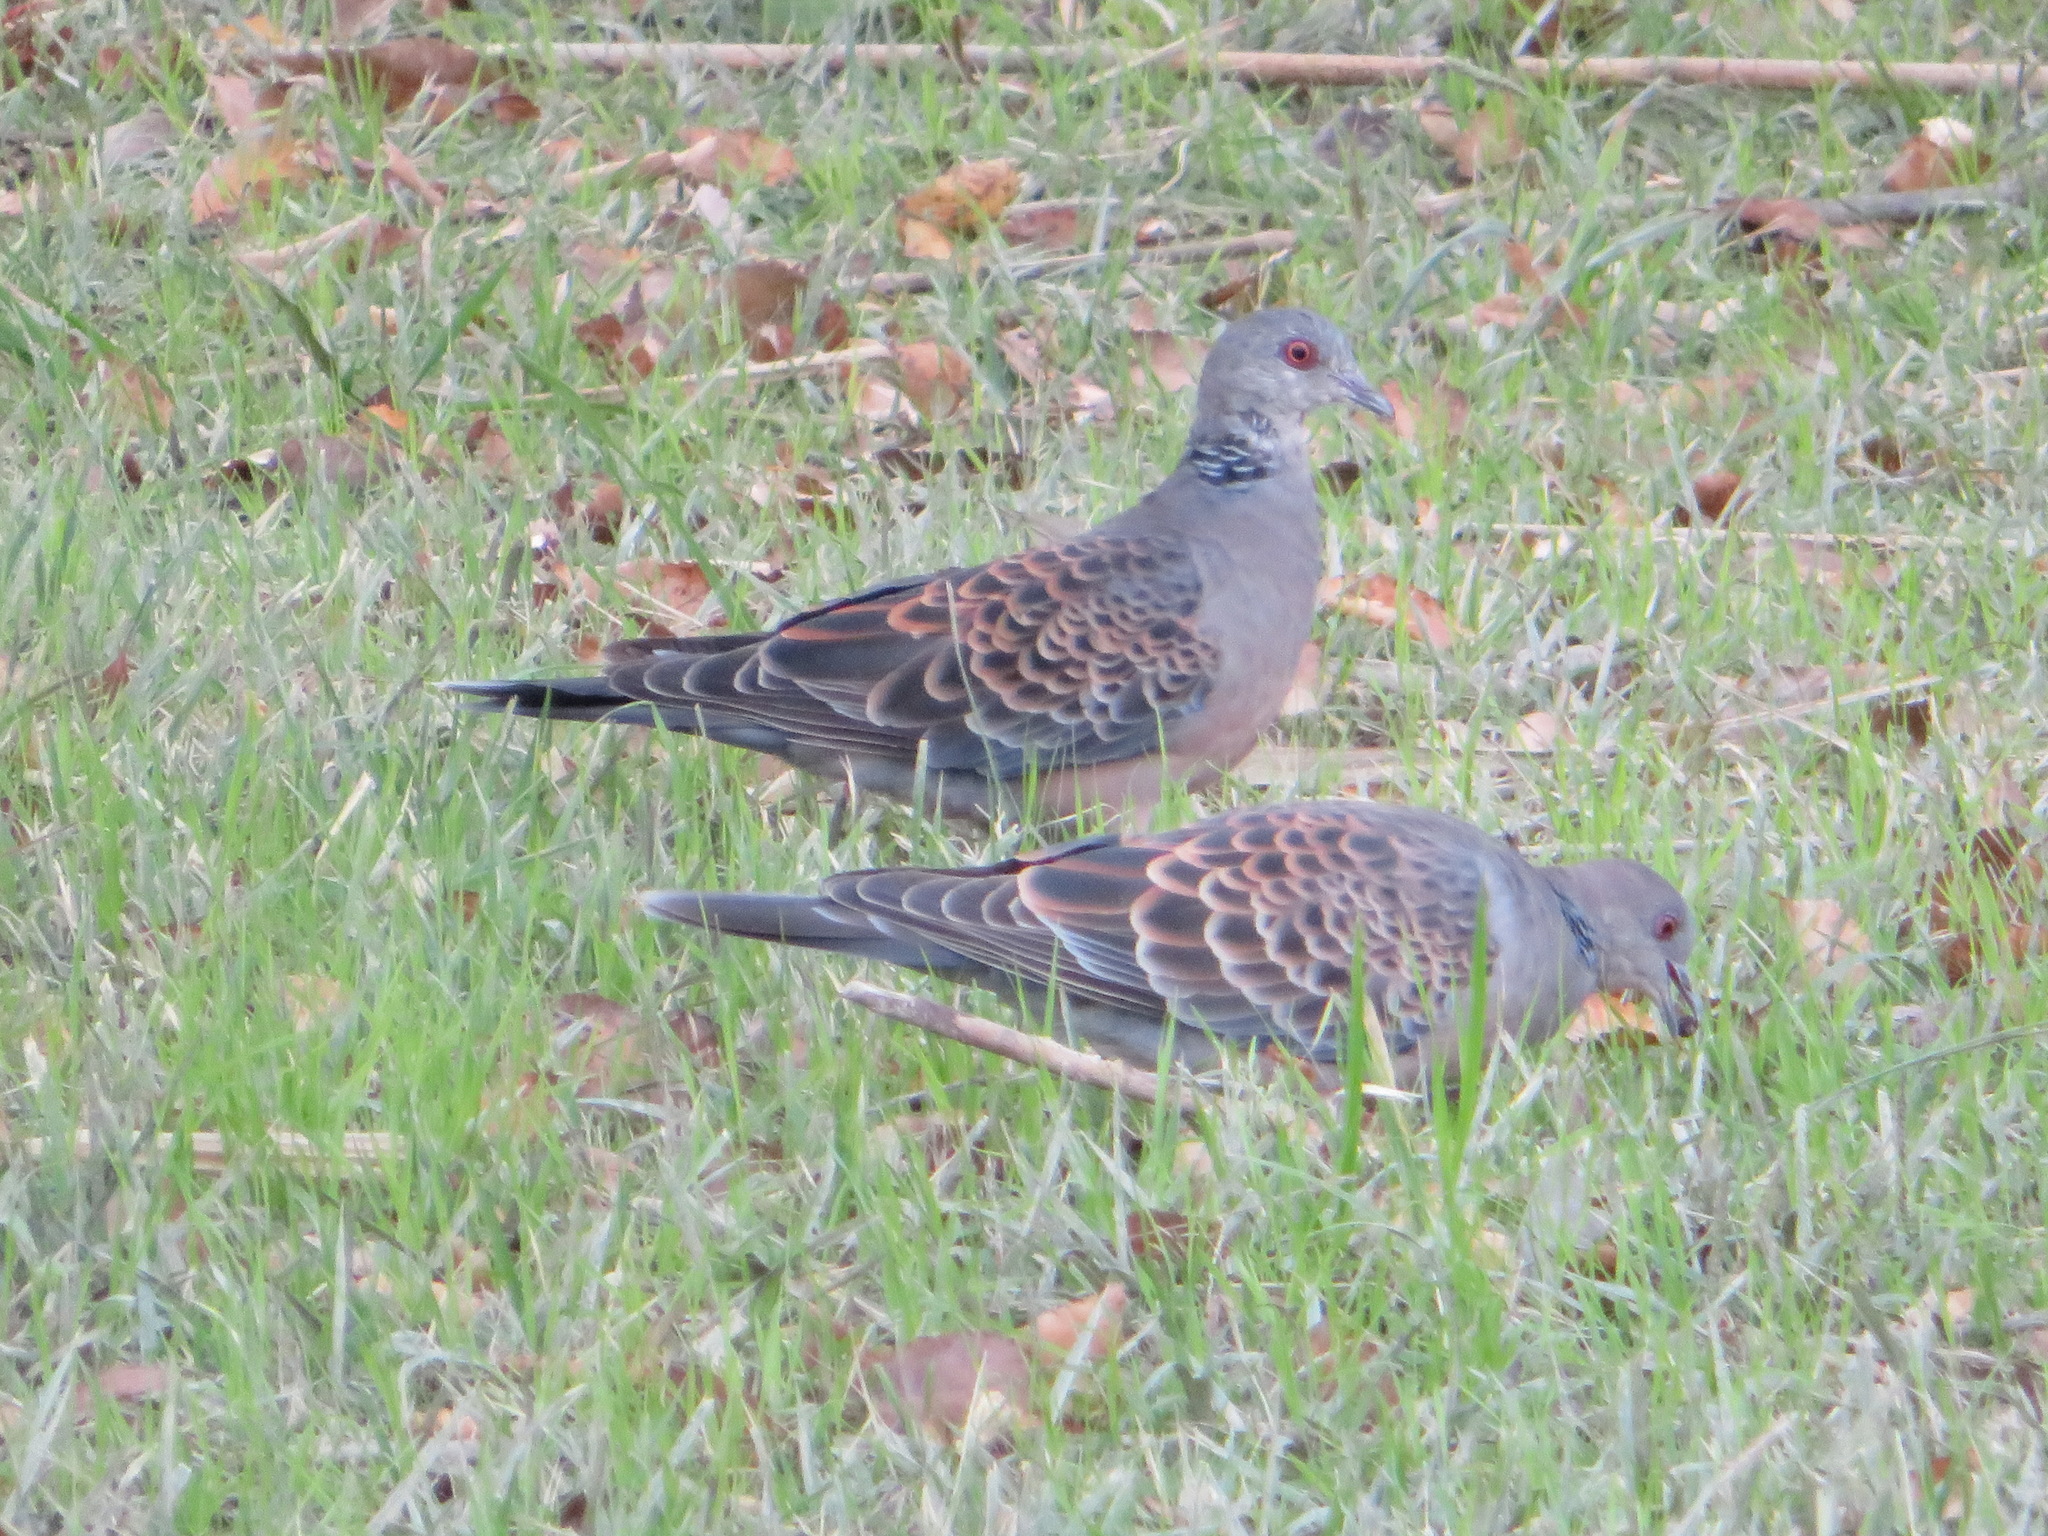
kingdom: Animalia
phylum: Chordata
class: Aves
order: Columbiformes
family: Columbidae
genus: Streptopelia
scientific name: Streptopelia orientalis
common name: Oriental turtle dove
